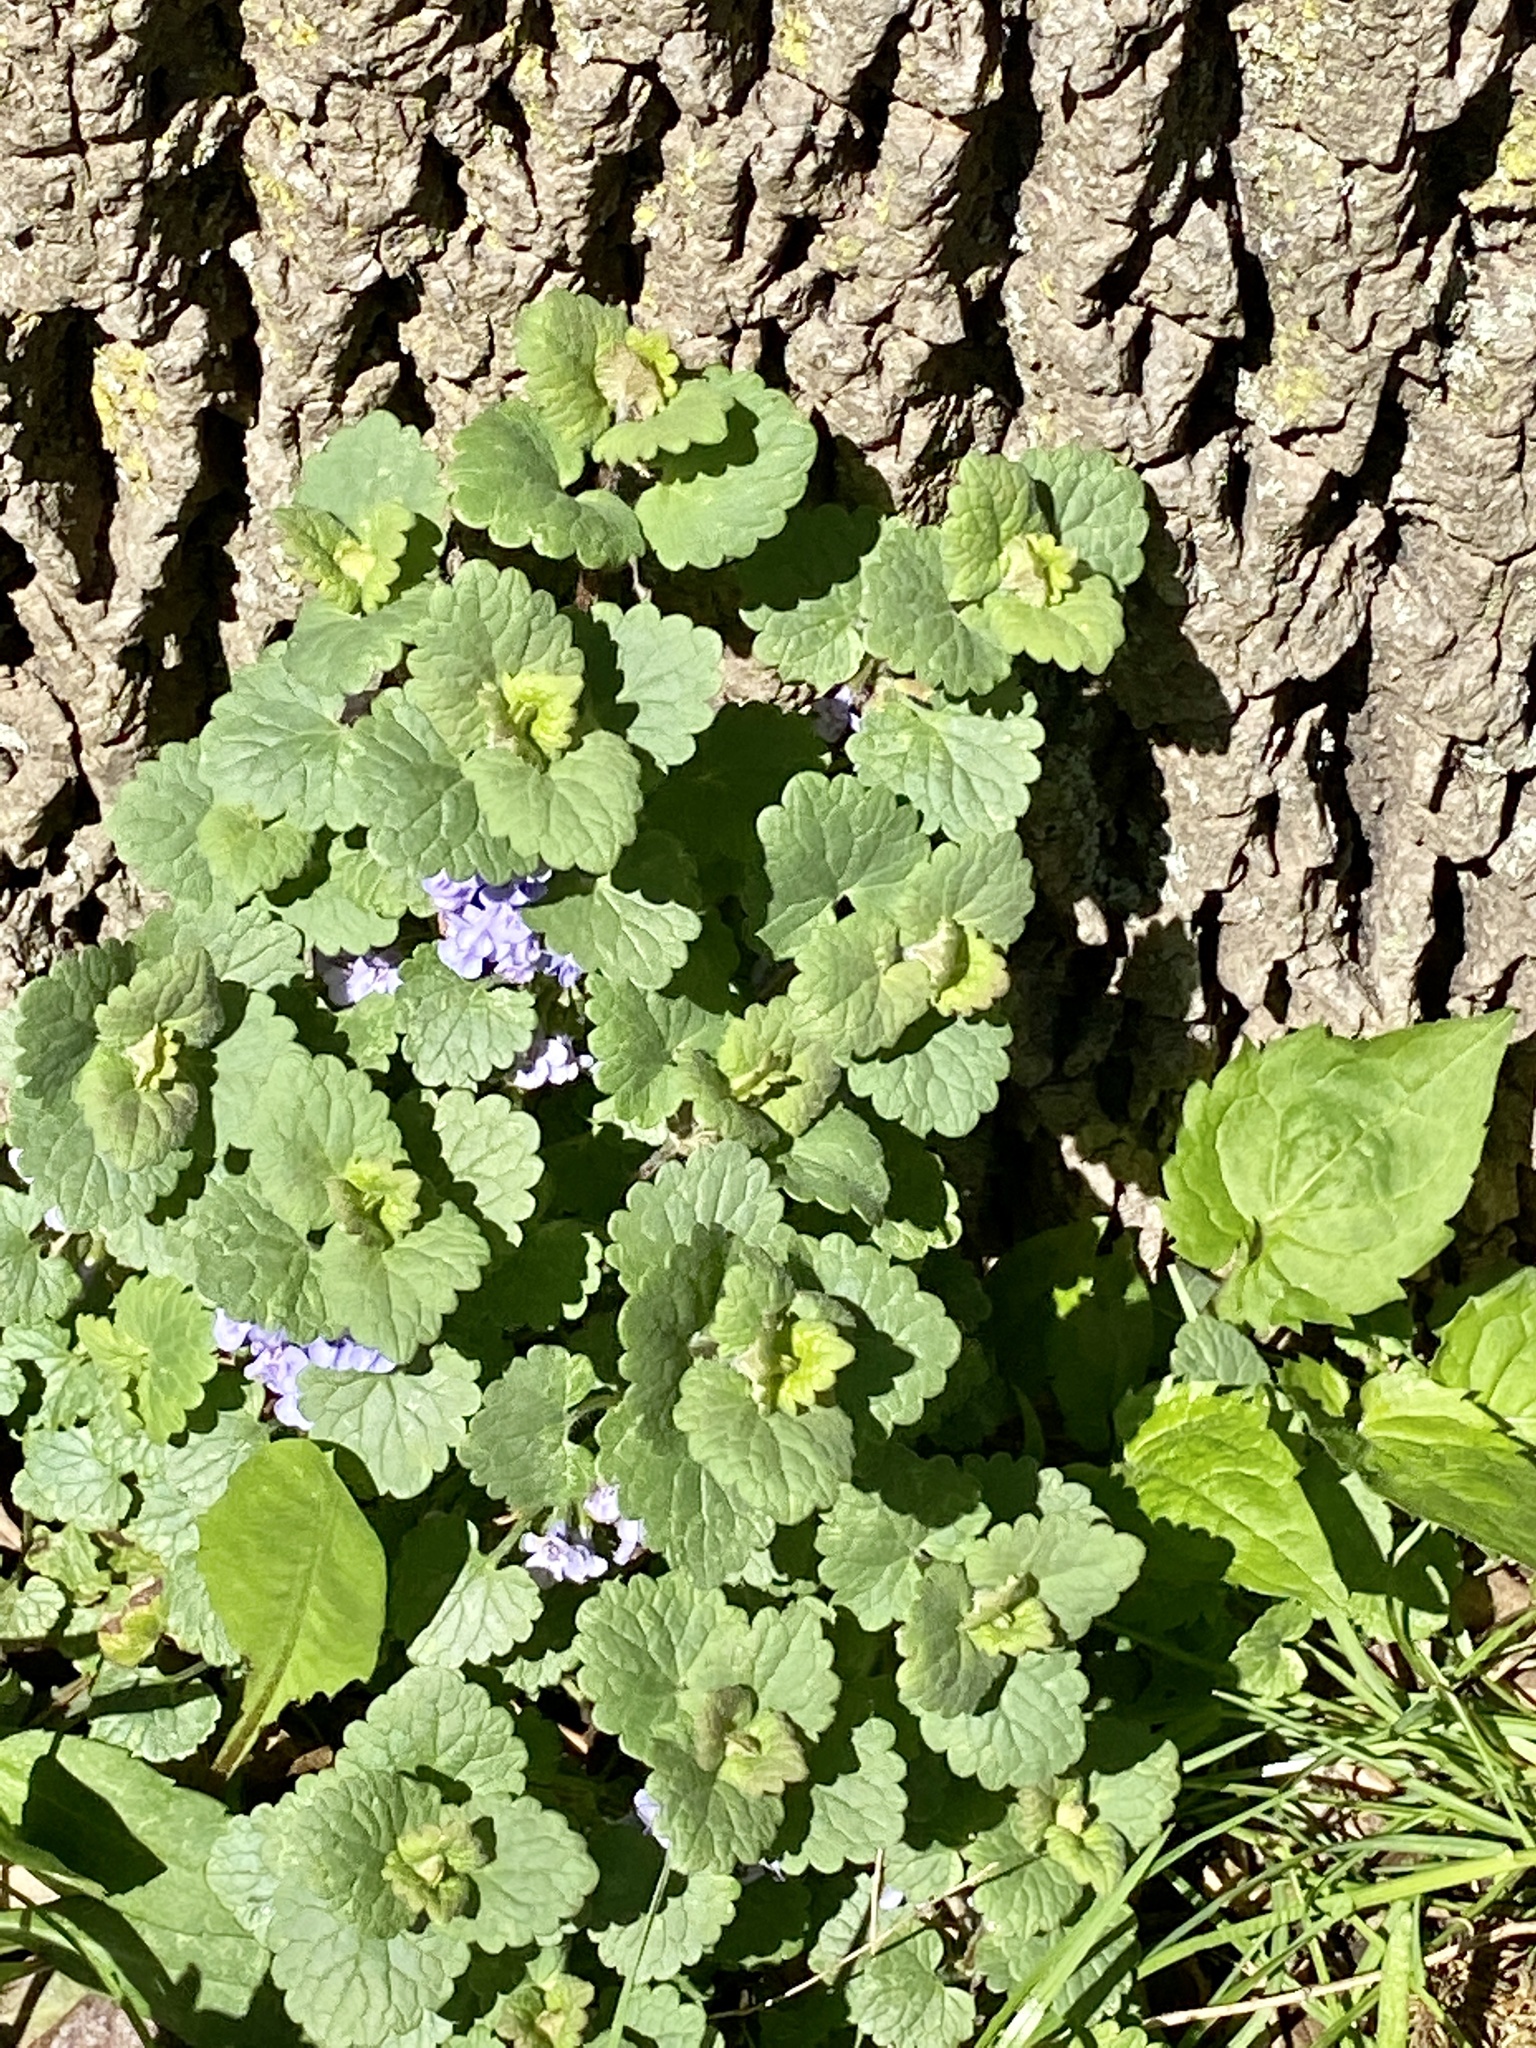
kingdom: Plantae
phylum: Tracheophyta
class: Magnoliopsida
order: Lamiales
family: Lamiaceae
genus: Glechoma
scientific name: Glechoma hederacea
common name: Ground ivy
